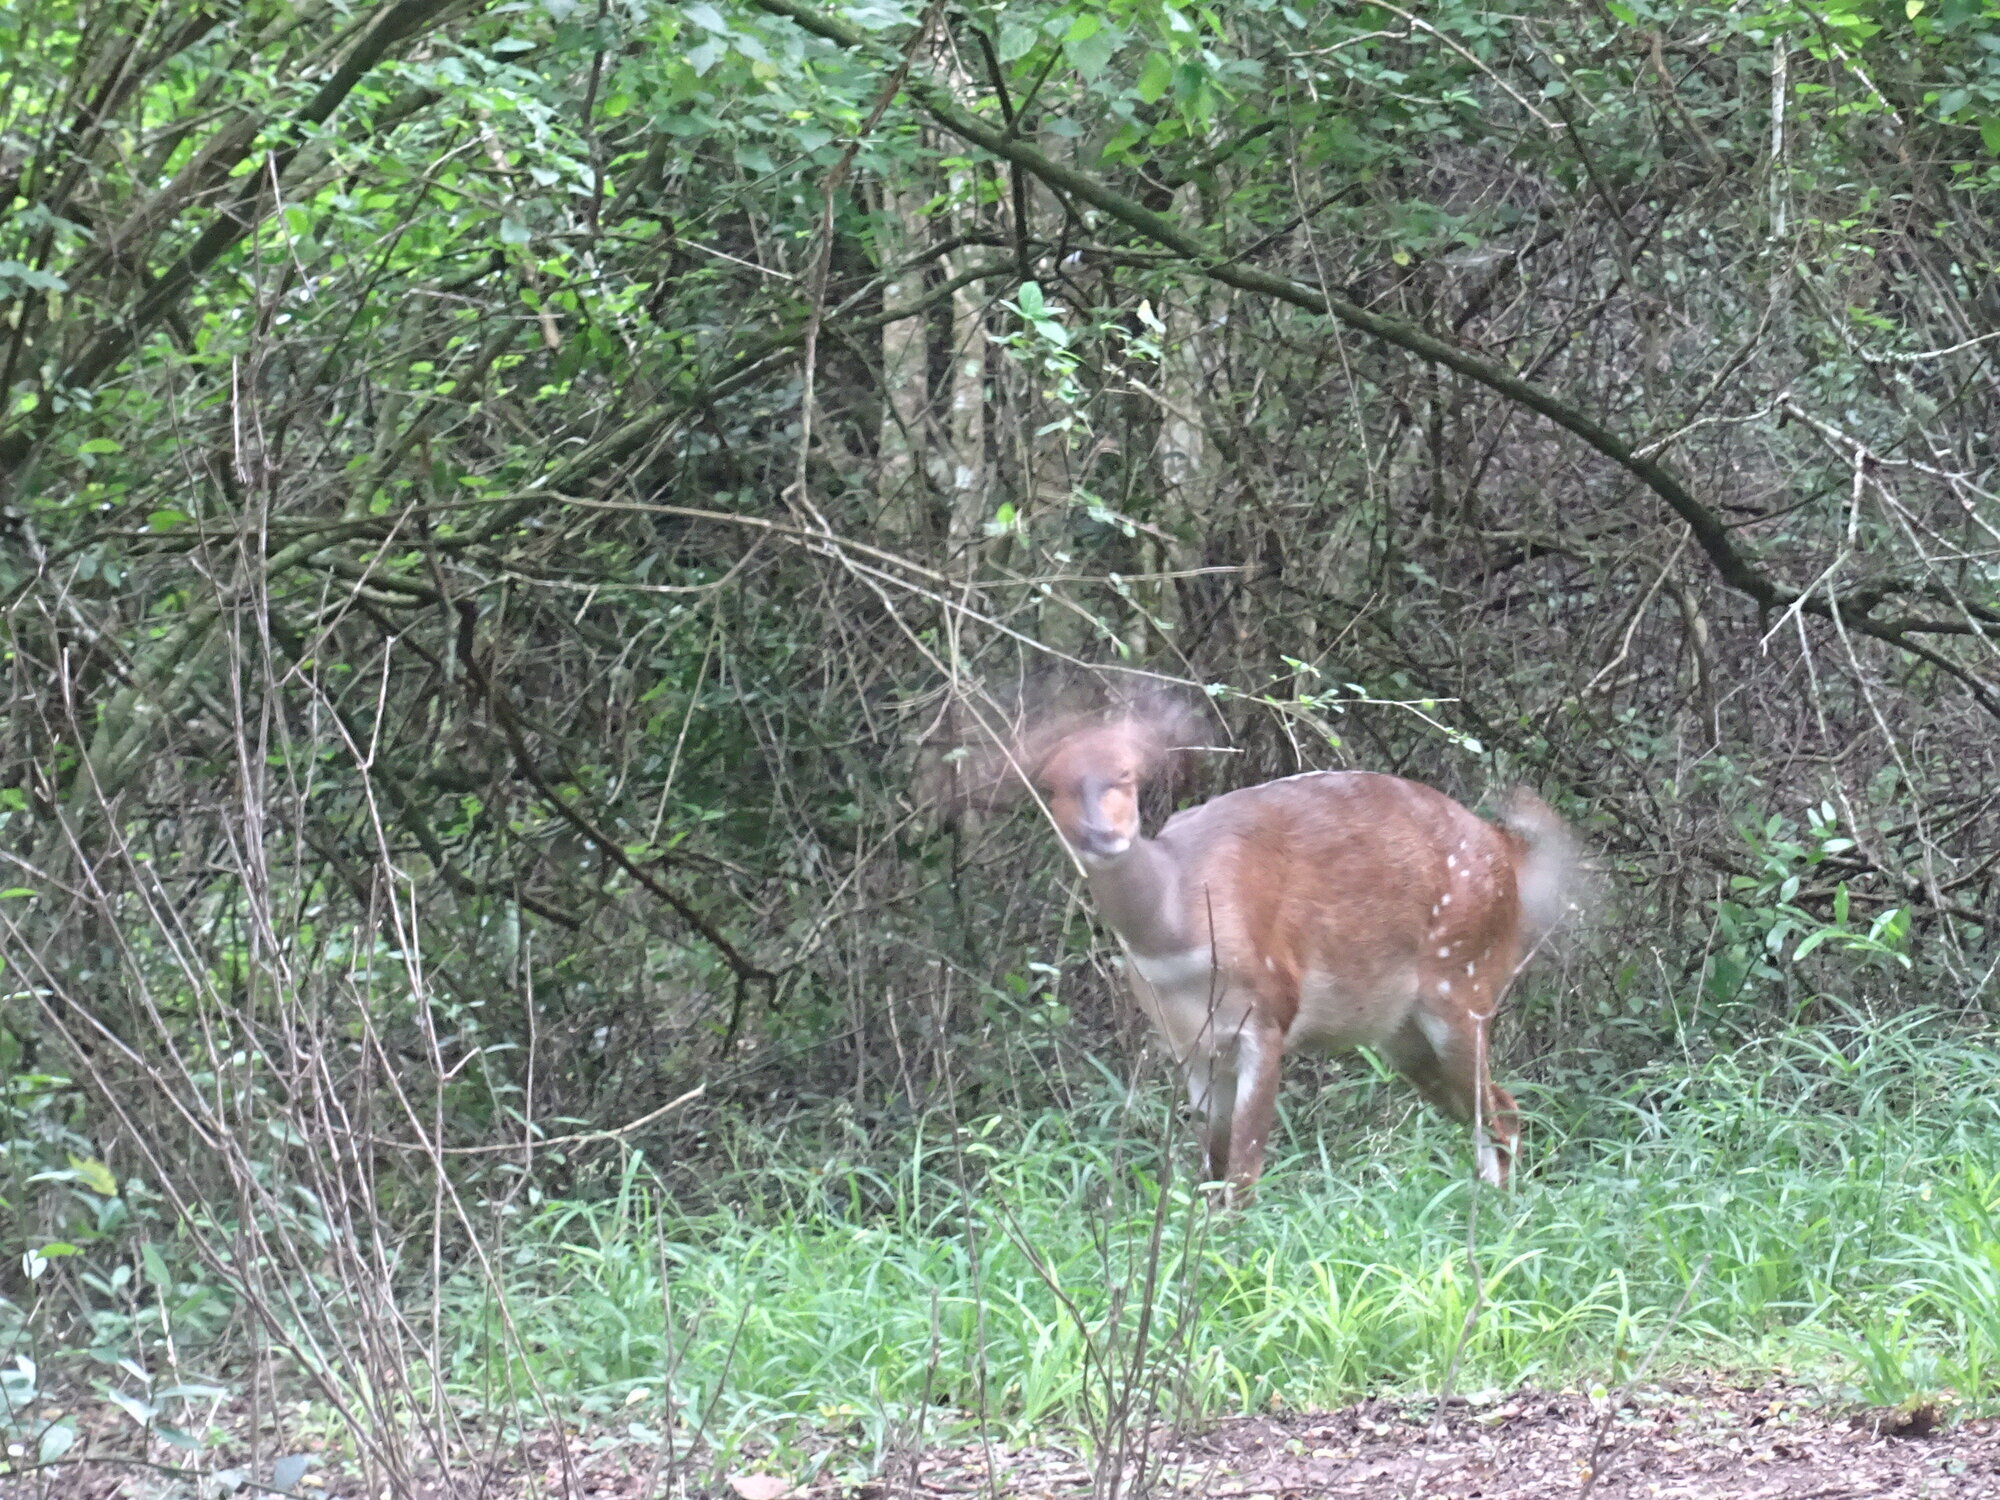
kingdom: Animalia
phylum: Chordata
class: Mammalia
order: Artiodactyla
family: Bovidae
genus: Tragelaphus
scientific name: Tragelaphus scriptus
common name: Bushbuck
